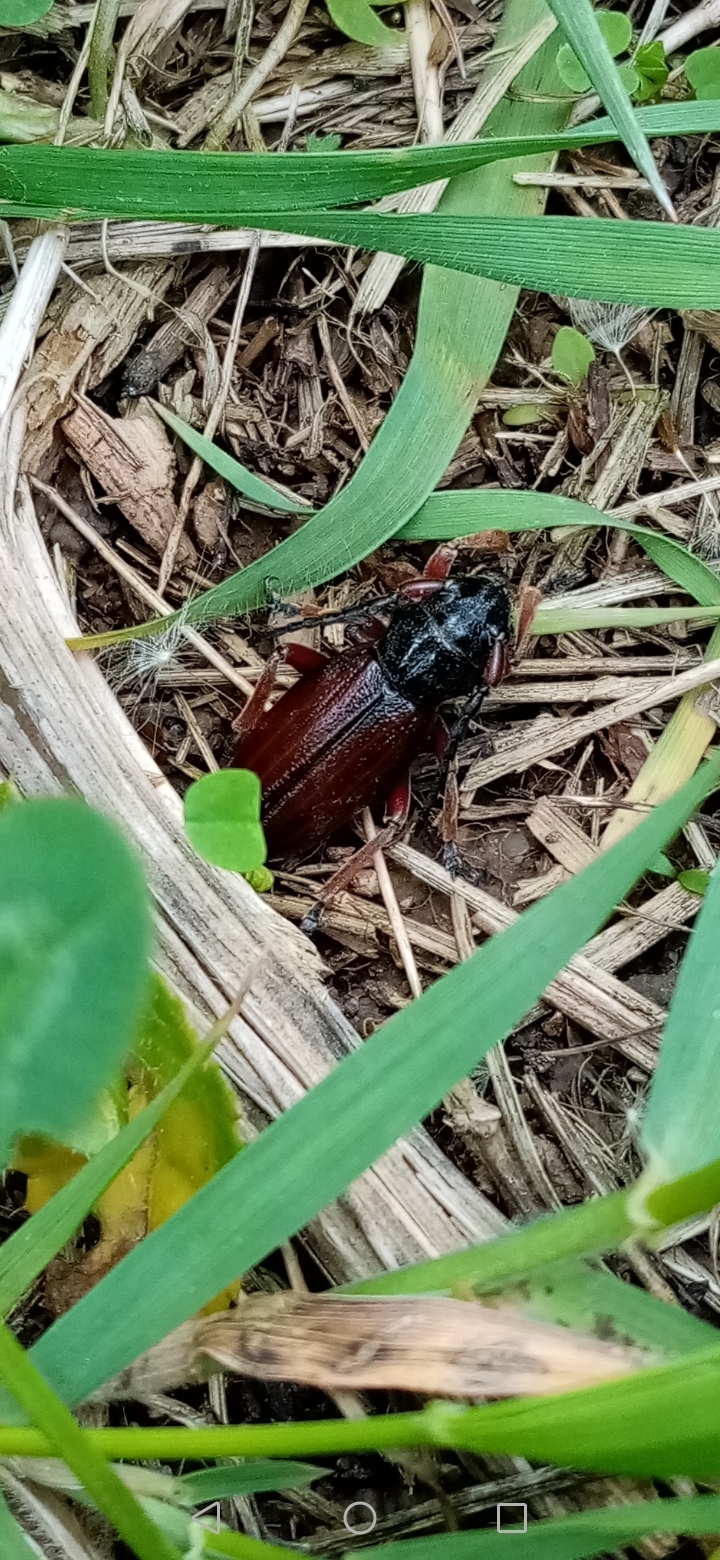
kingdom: Animalia
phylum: Arthropoda
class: Insecta
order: Coleoptera
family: Cerambycidae
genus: Dorcadion
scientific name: Dorcadion fulvum
